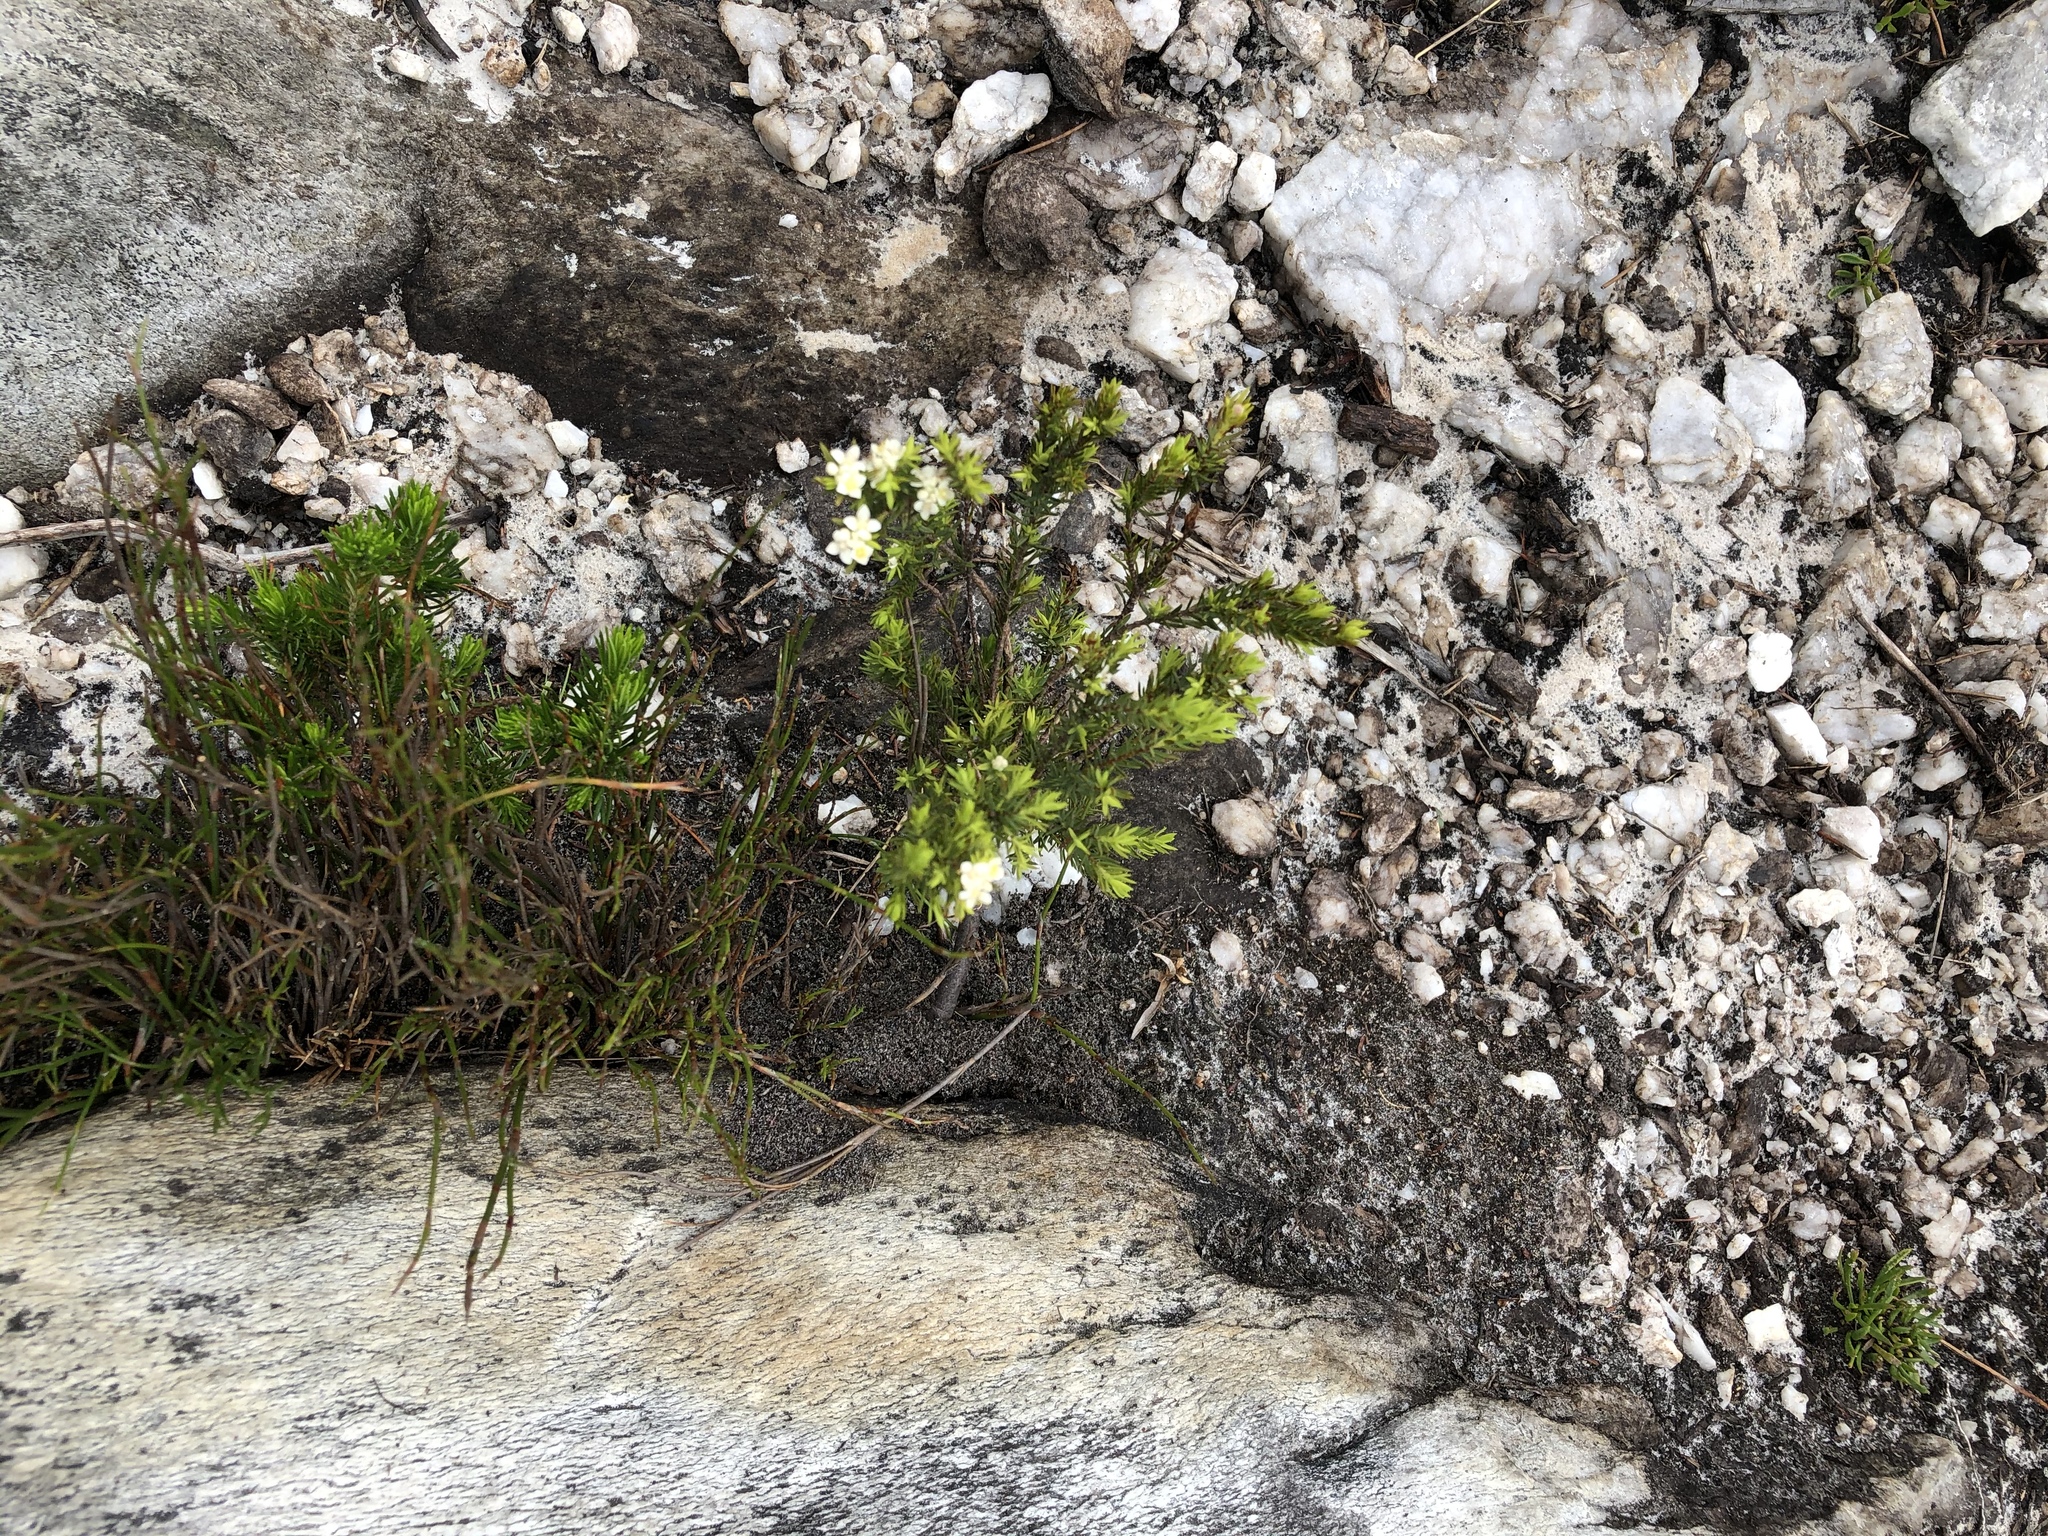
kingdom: Plantae
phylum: Tracheophyta
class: Magnoliopsida
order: Malvales
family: Thymelaeaceae
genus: Lachnaea
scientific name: Lachnaea diosmoides
